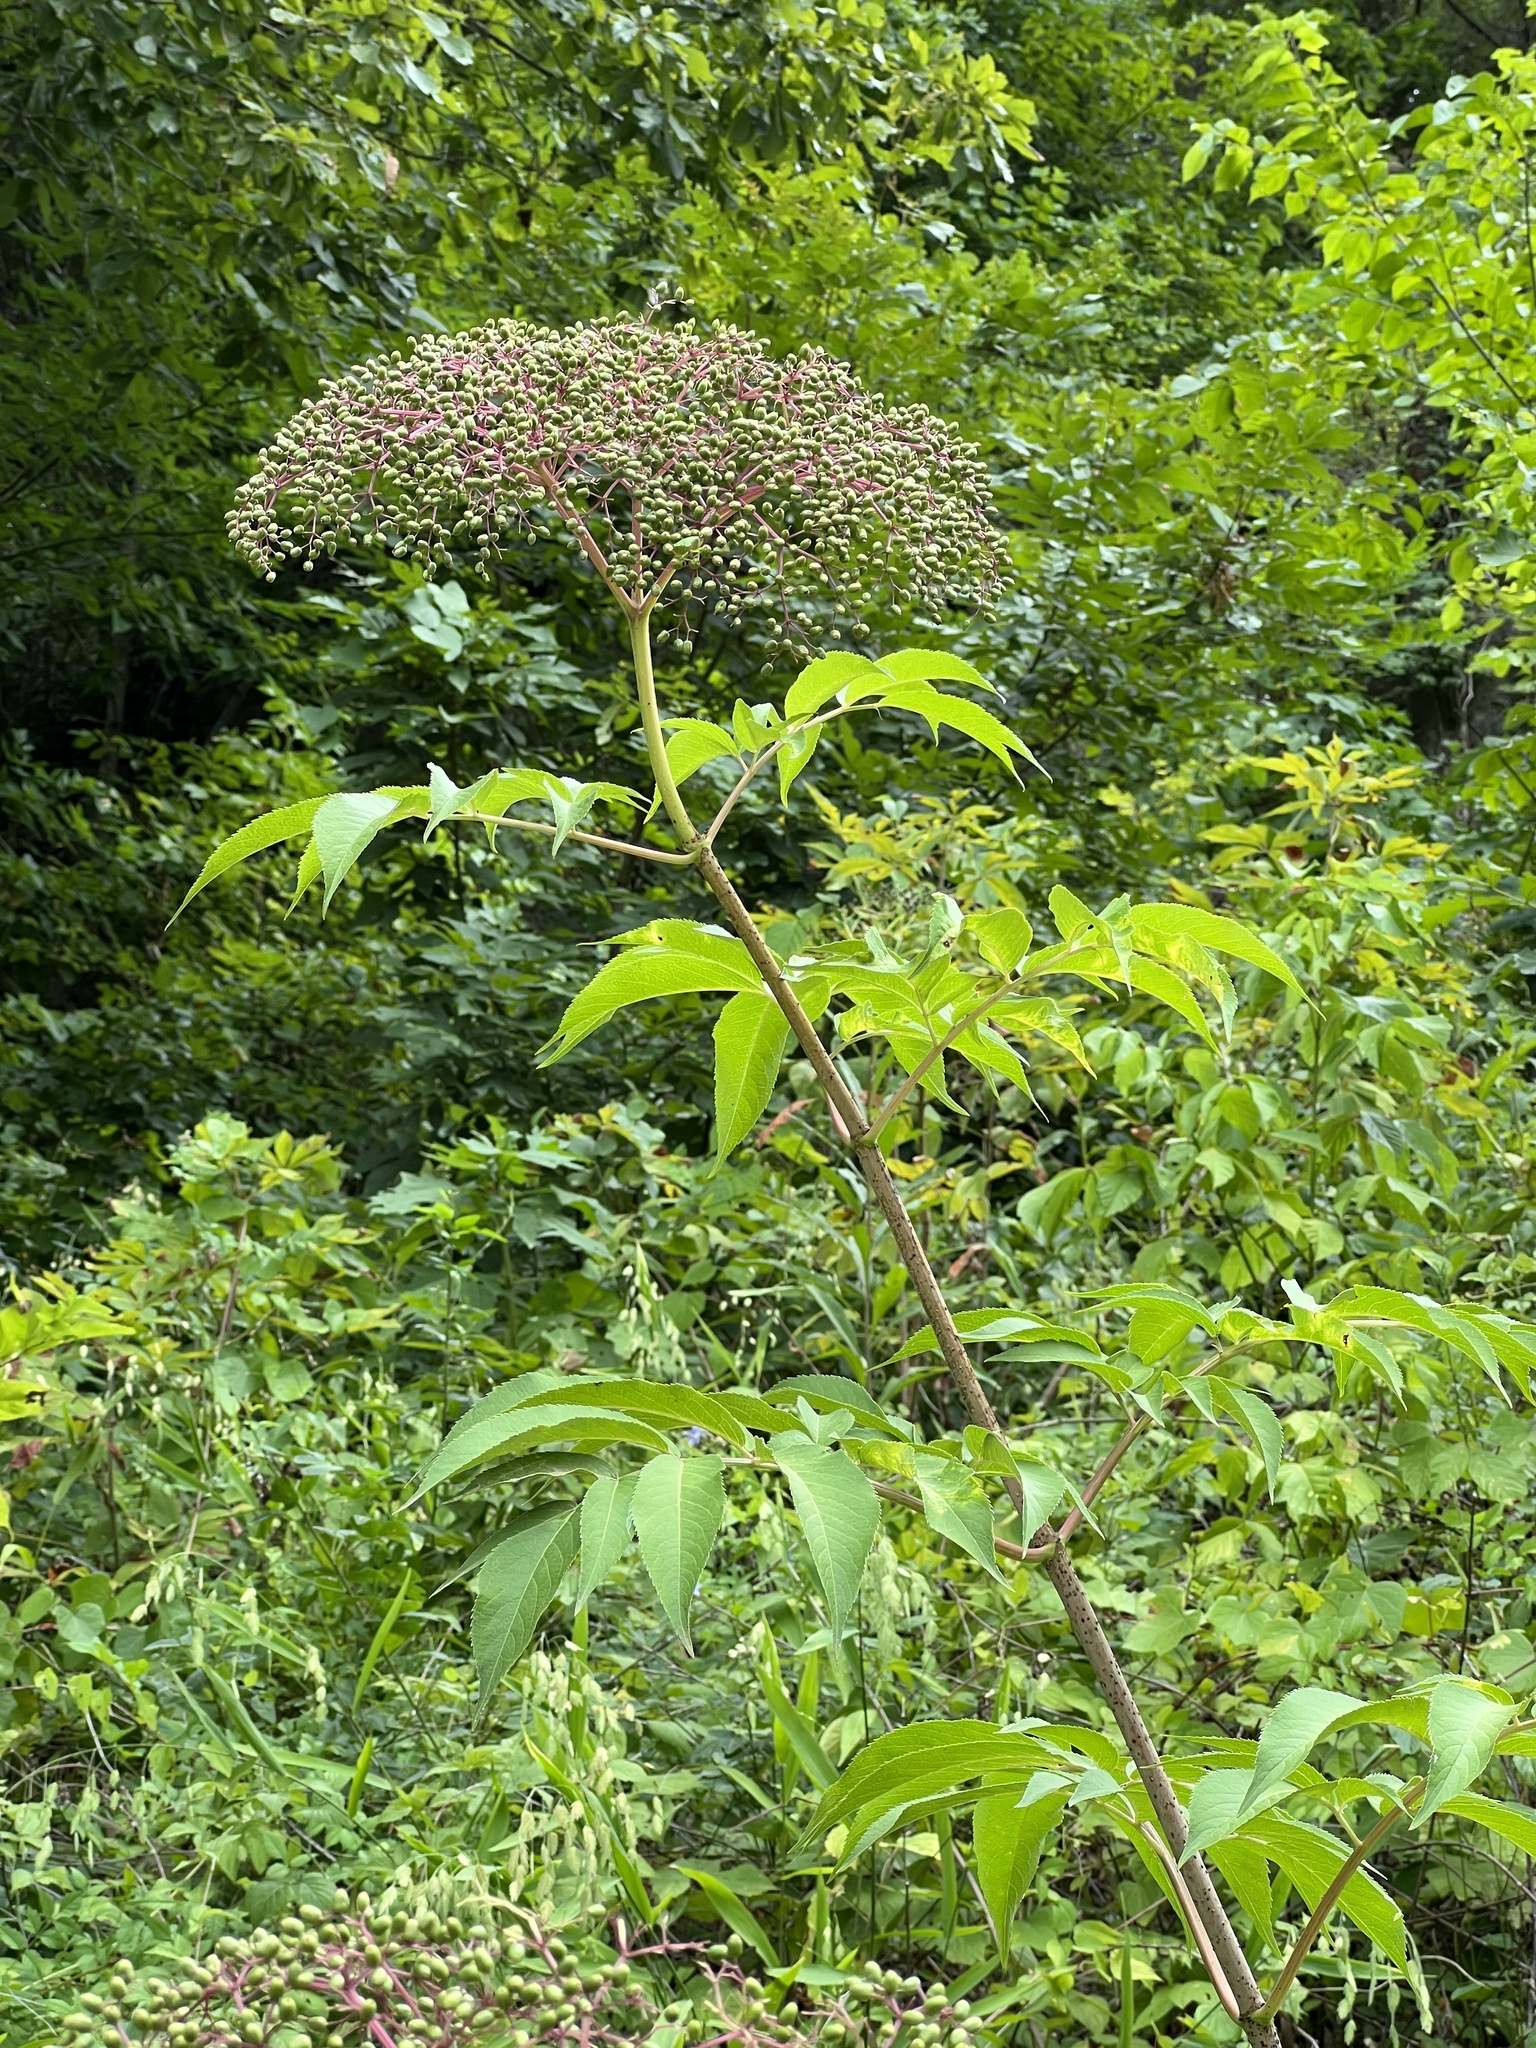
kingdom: Plantae
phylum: Tracheophyta
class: Magnoliopsida
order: Dipsacales
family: Viburnaceae
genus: Sambucus
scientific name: Sambucus canadensis
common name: American elder
